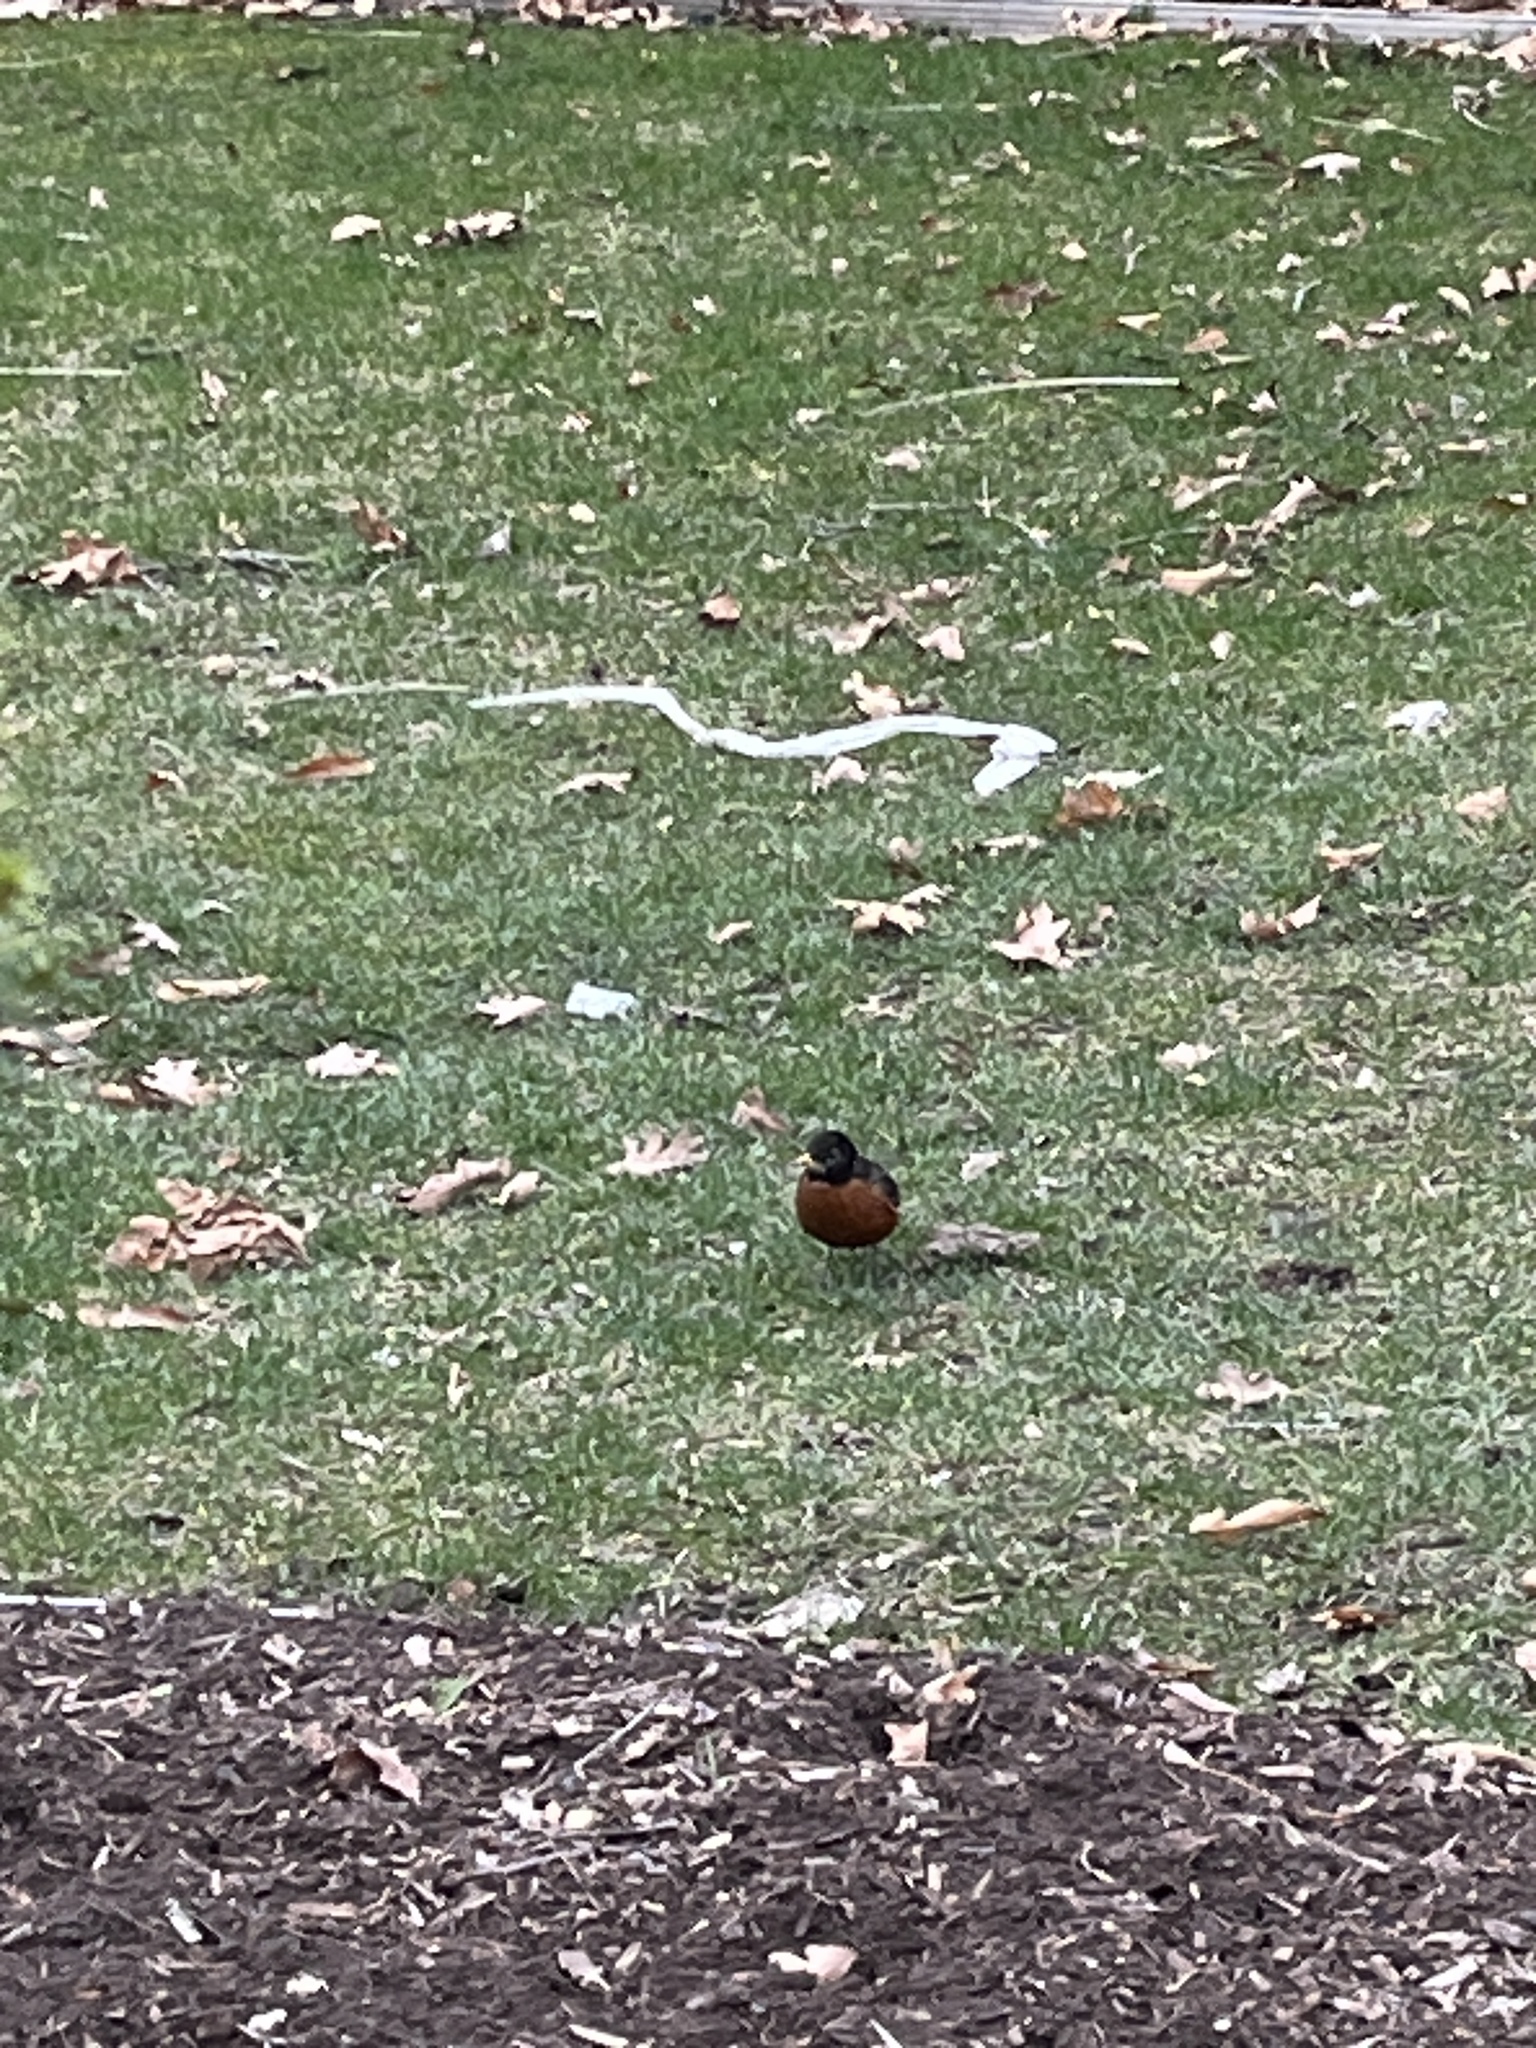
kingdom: Animalia
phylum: Chordata
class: Aves
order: Passeriformes
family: Turdidae
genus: Turdus
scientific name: Turdus migratorius
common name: American robin
